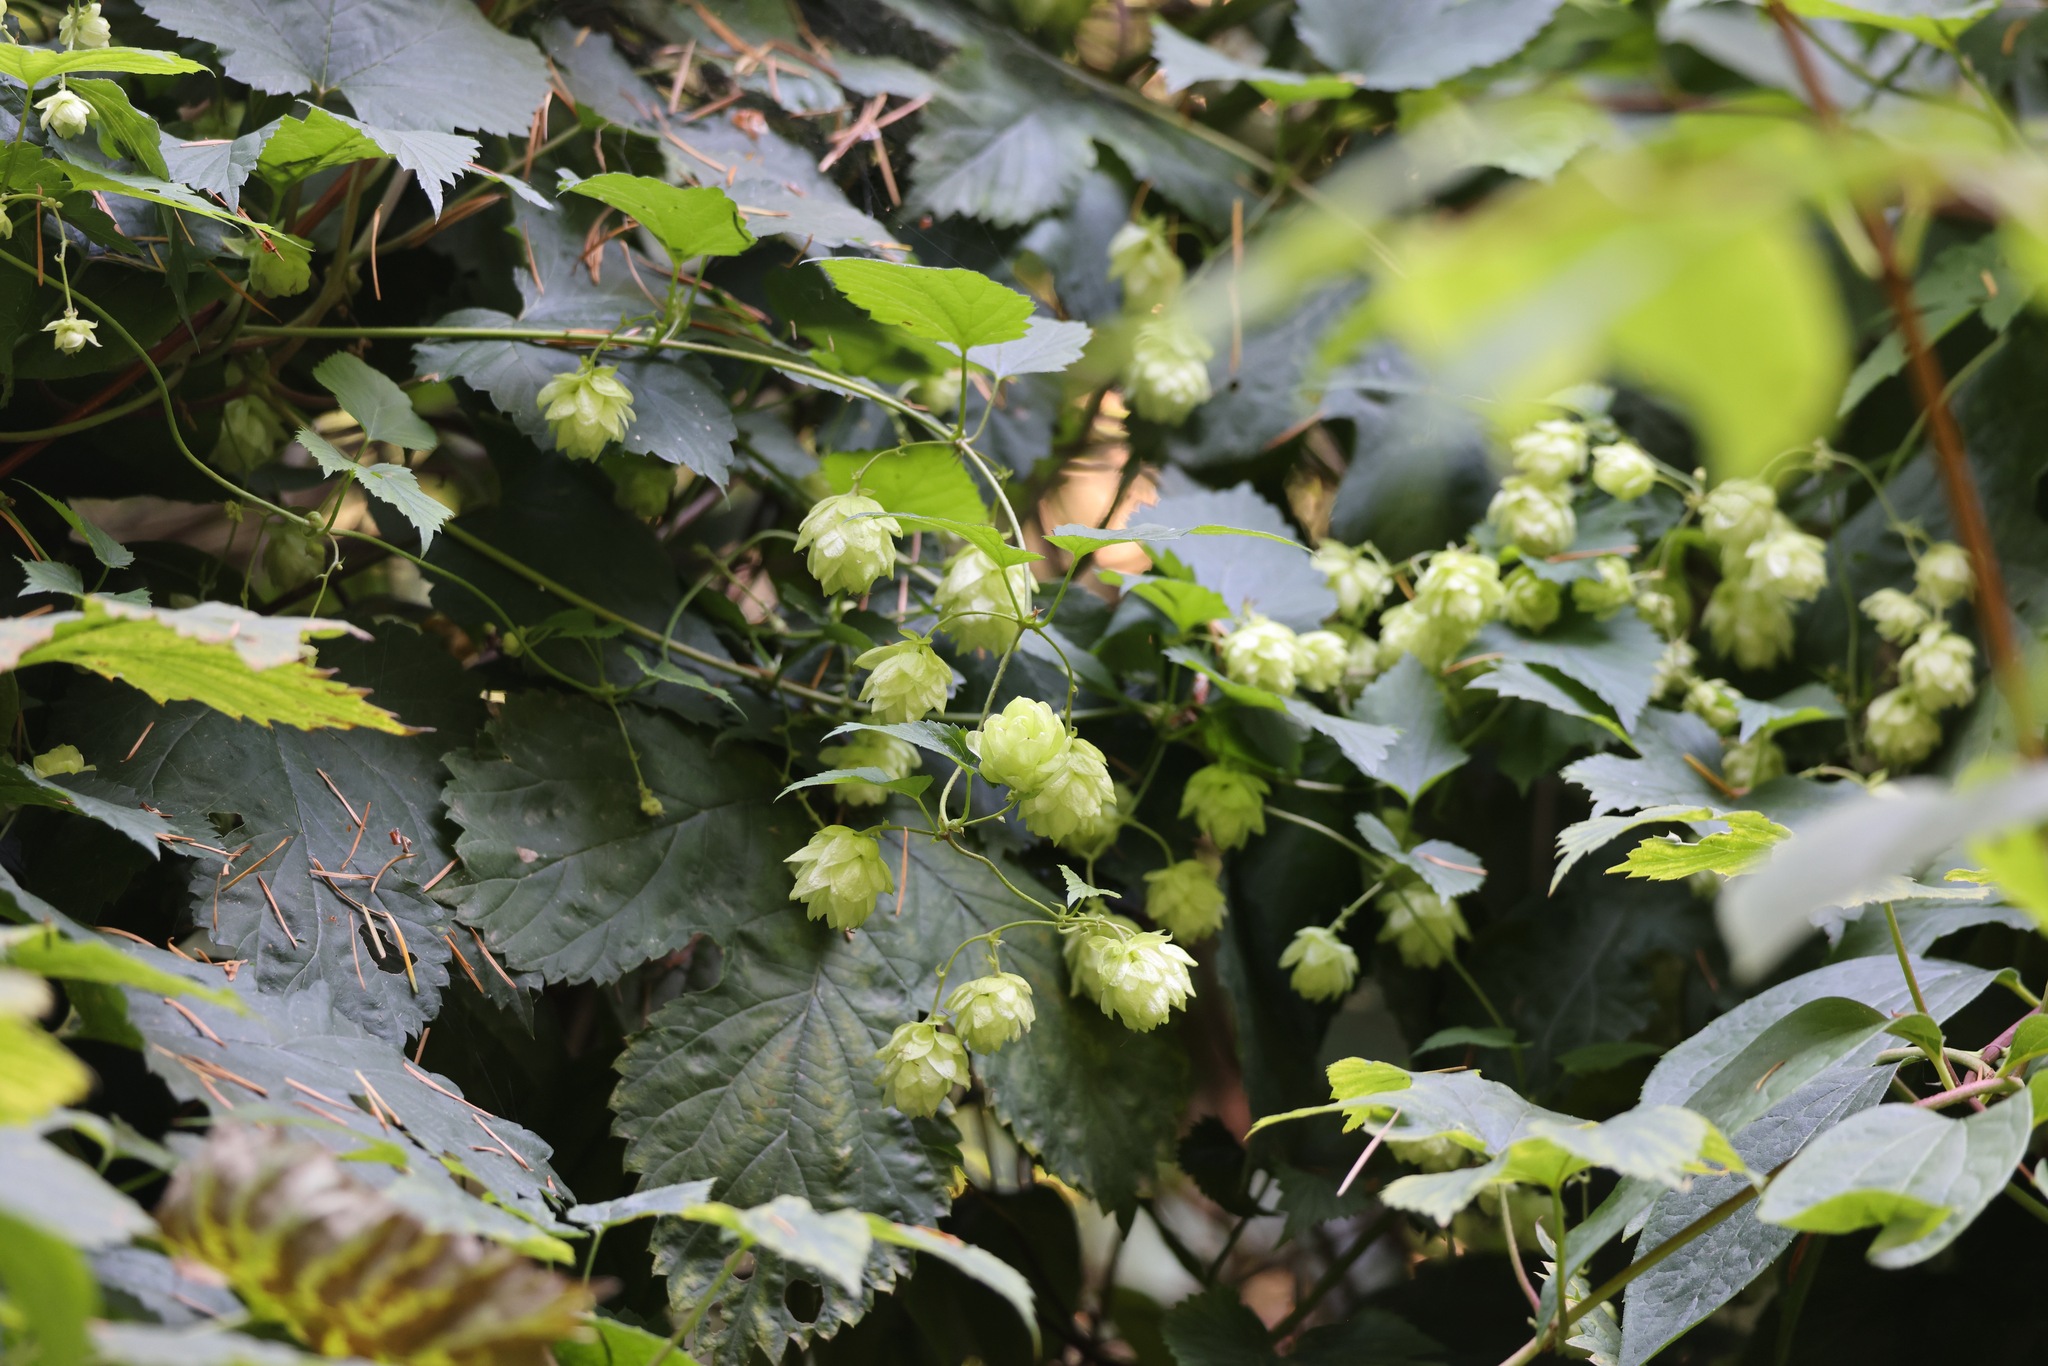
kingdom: Plantae
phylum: Tracheophyta
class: Magnoliopsida
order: Rosales
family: Cannabaceae
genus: Humulus
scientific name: Humulus lupulus
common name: Hop
